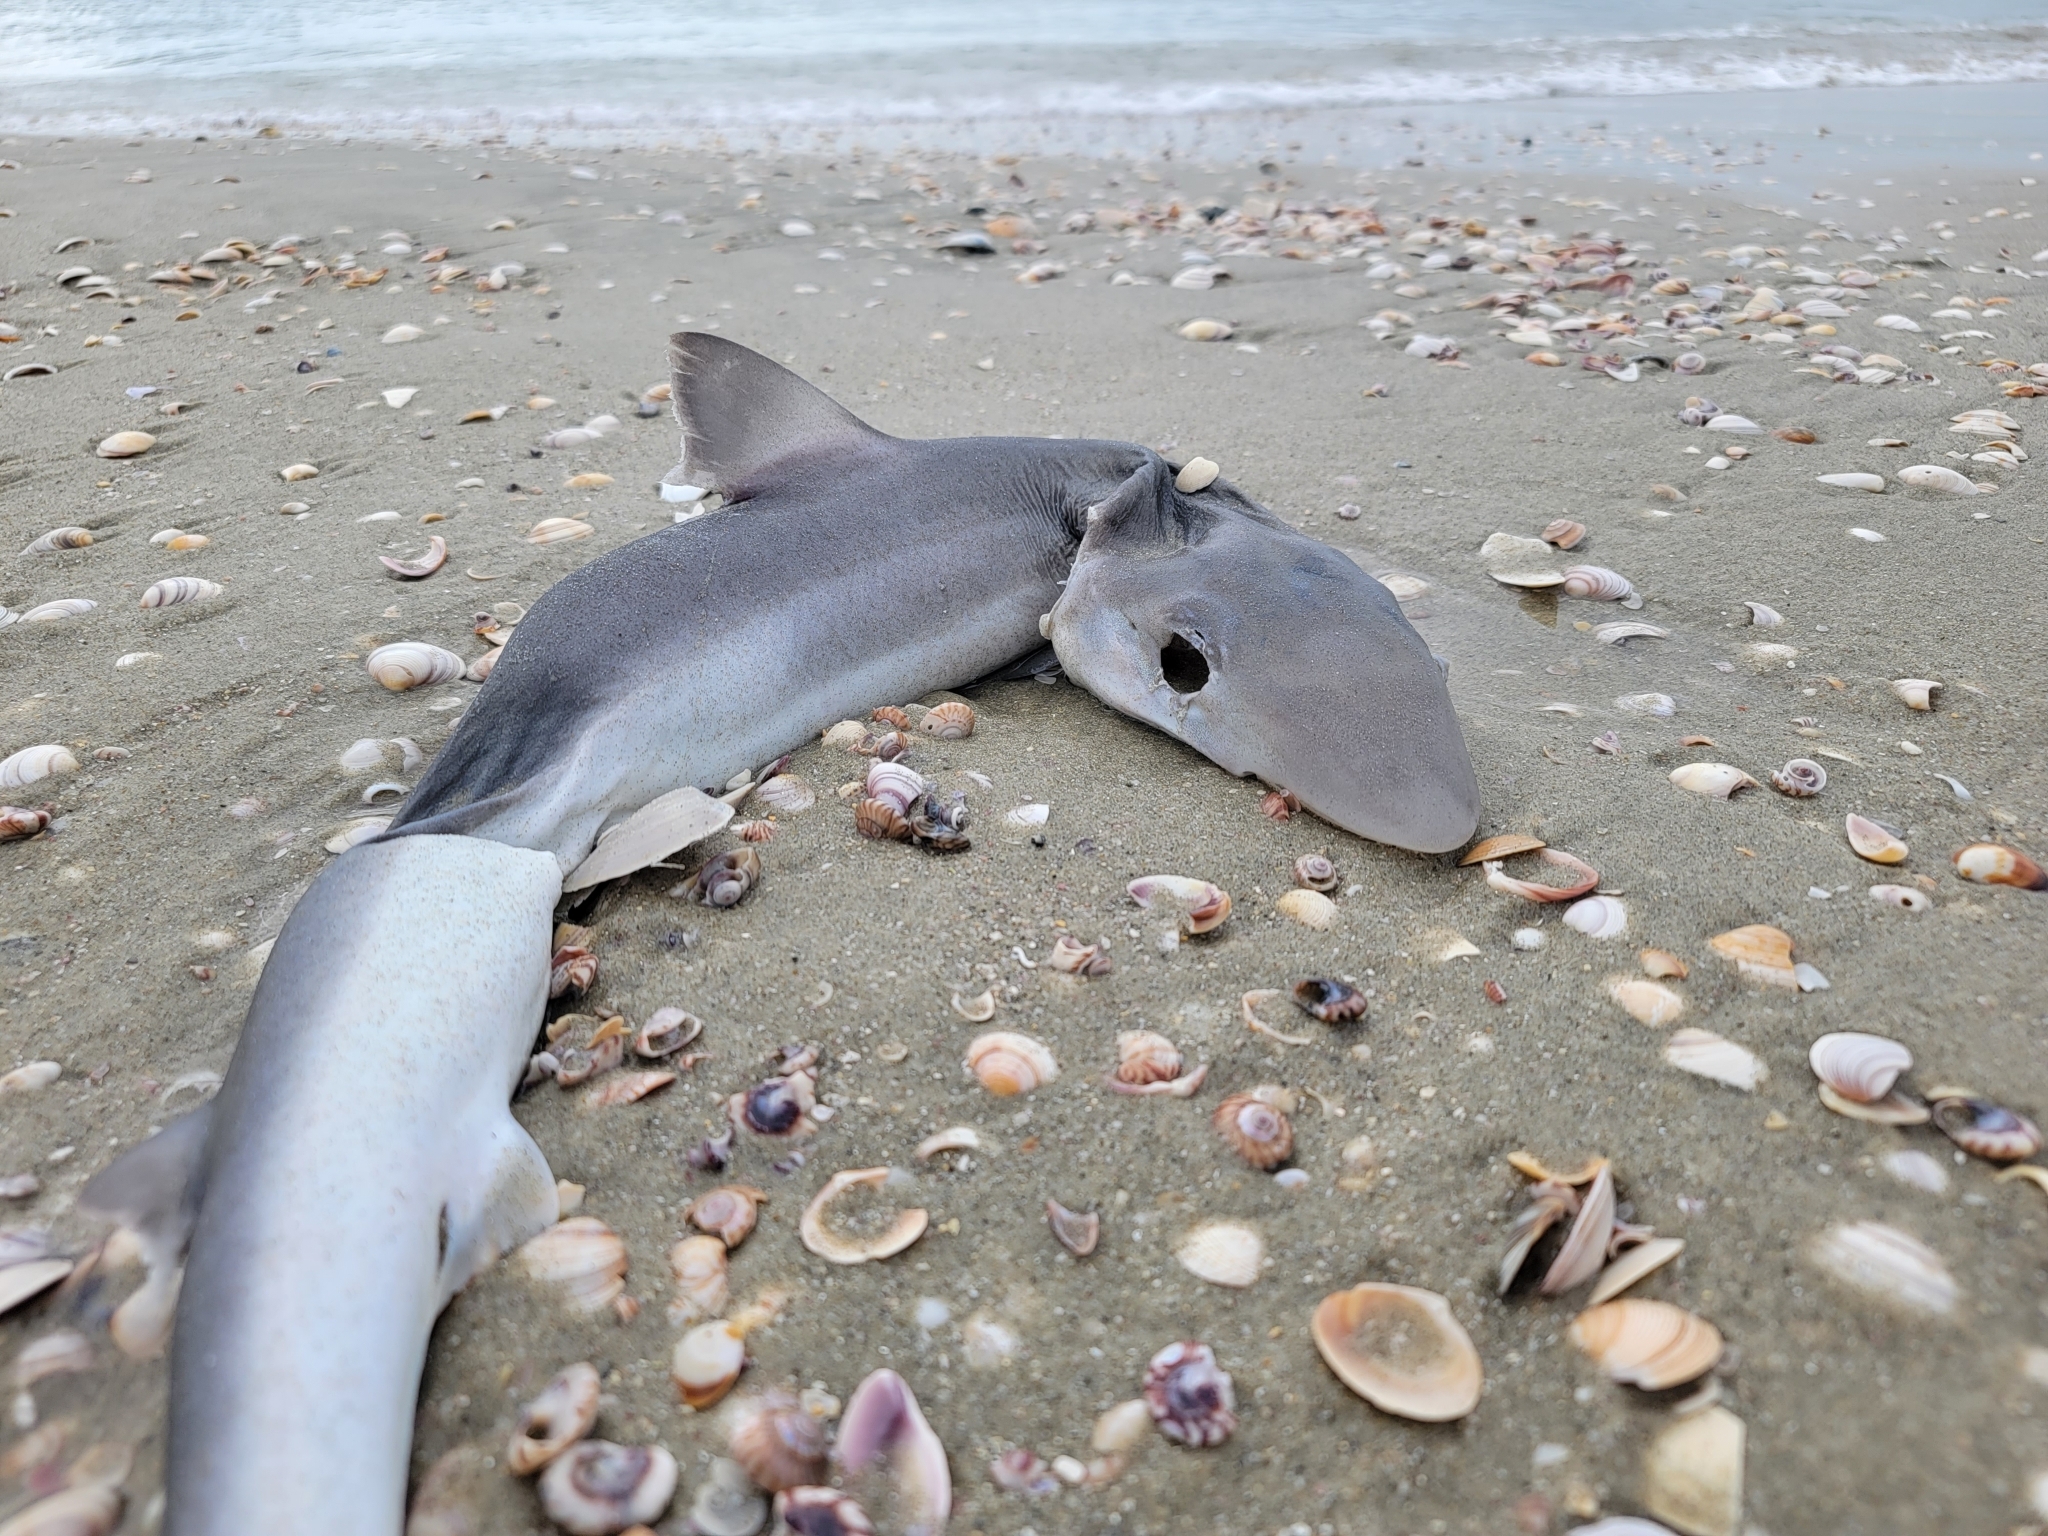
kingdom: Animalia
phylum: Chordata
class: Elasmobranchii
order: Carcharhiniformes
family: Triakidae
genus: Galeorhinus
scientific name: Galeorhinus galeus
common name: Tope
